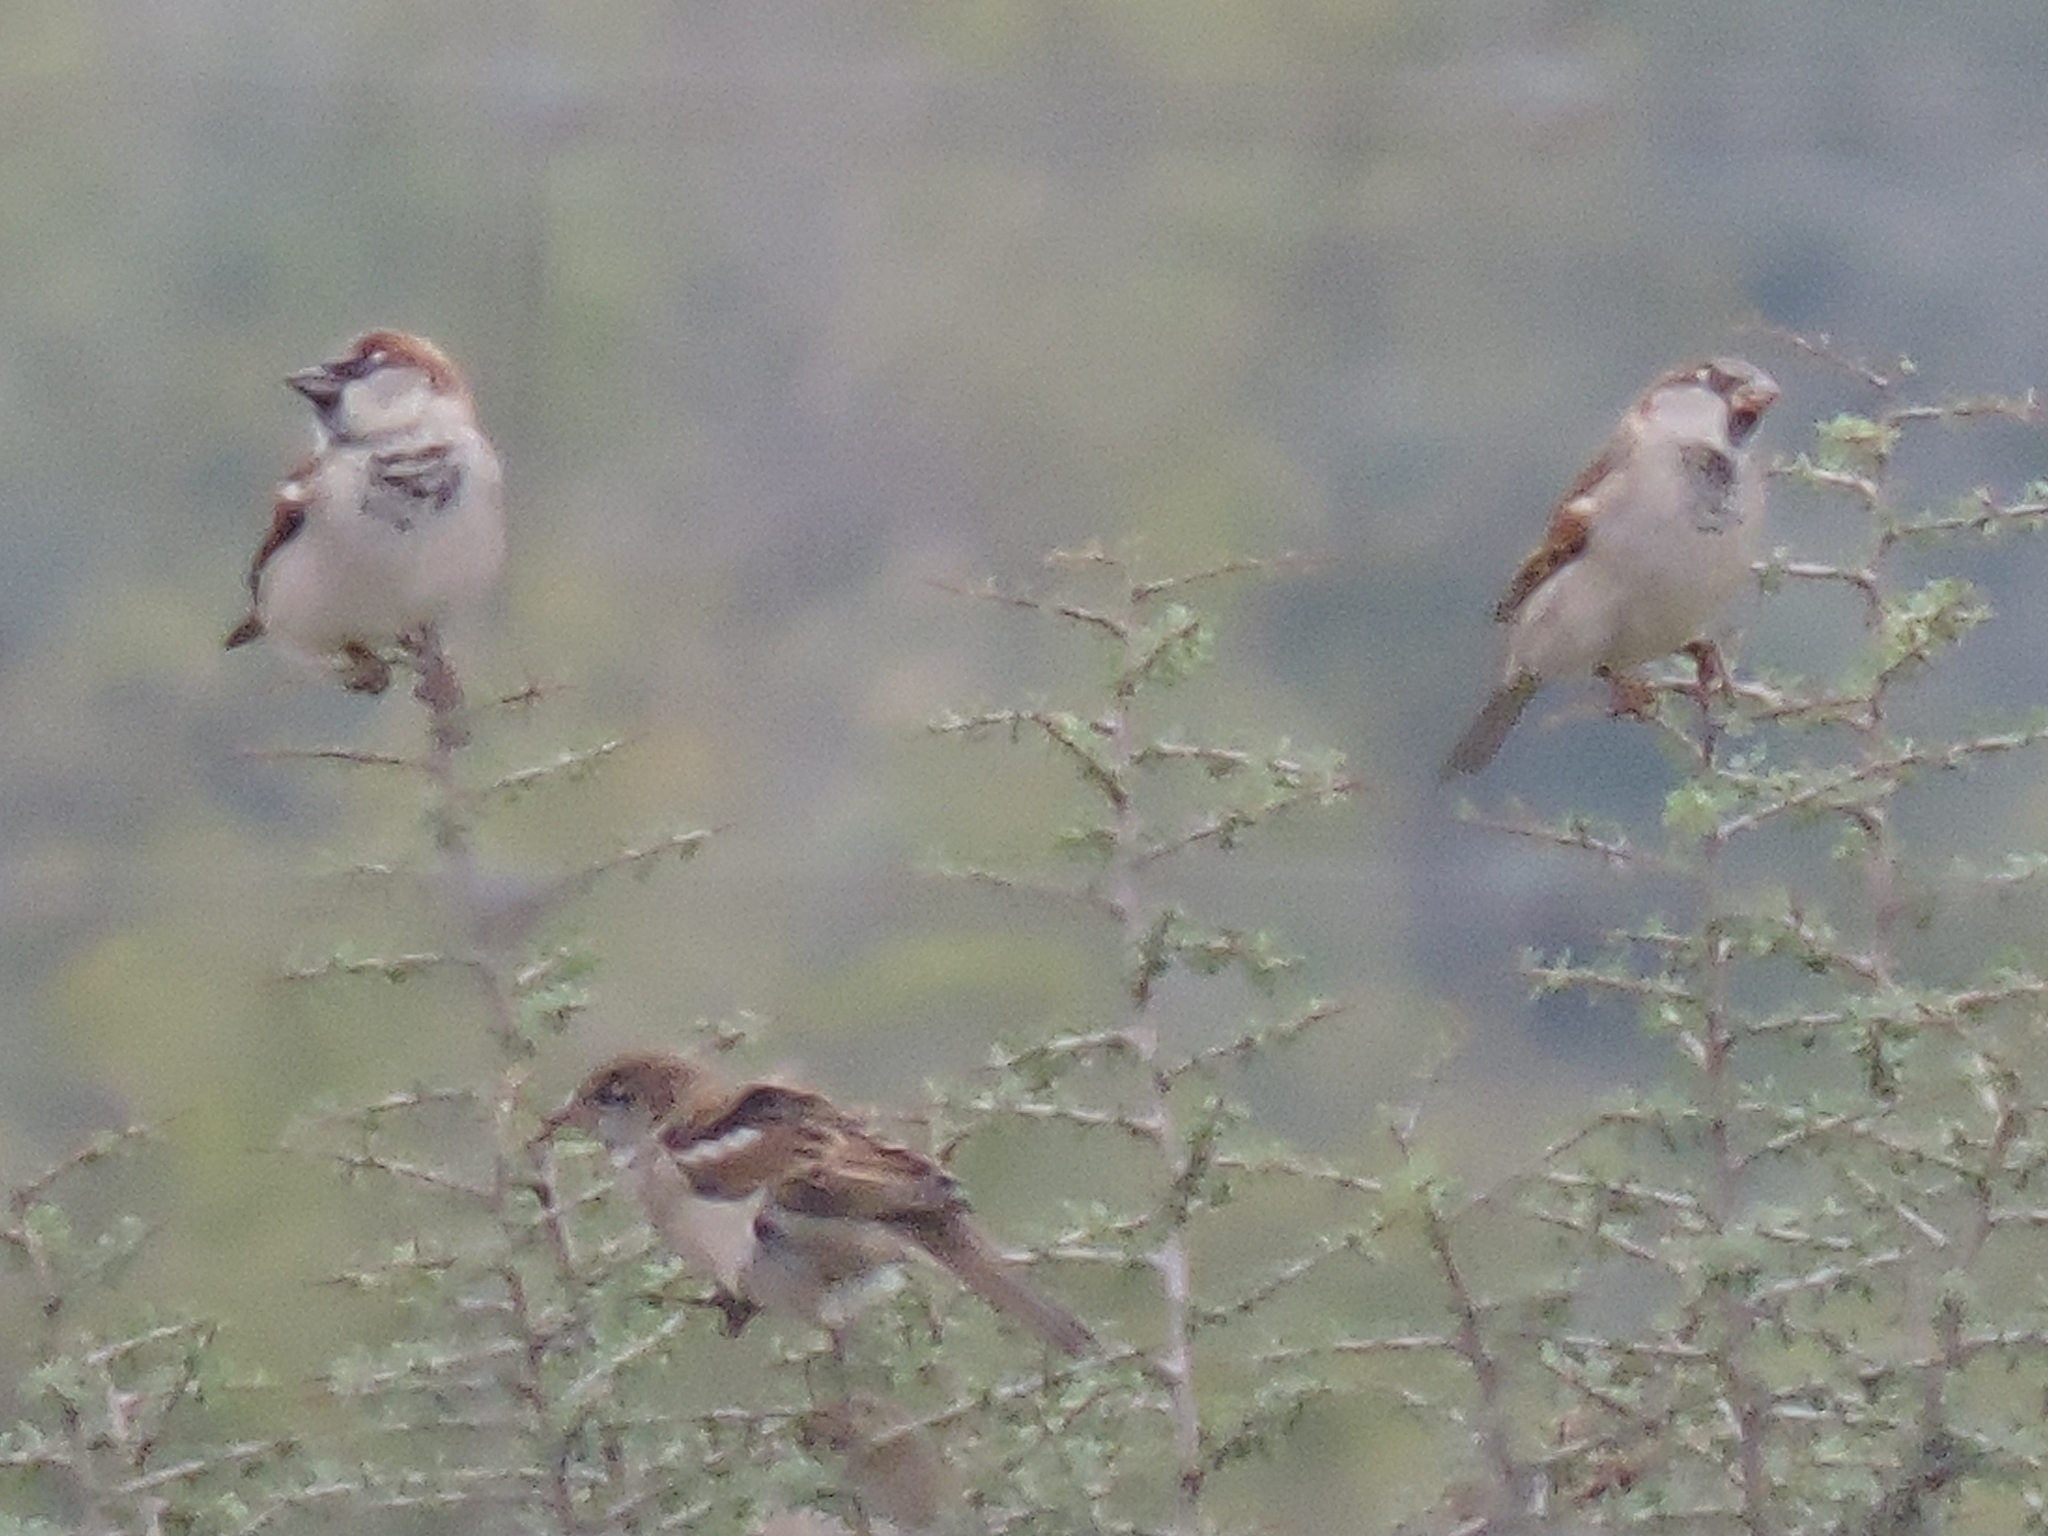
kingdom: Animalia
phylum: Chordata
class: Aves
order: Passeriformes
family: Passeridae
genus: Passer
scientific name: Passer domesticus
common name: House sparrow
